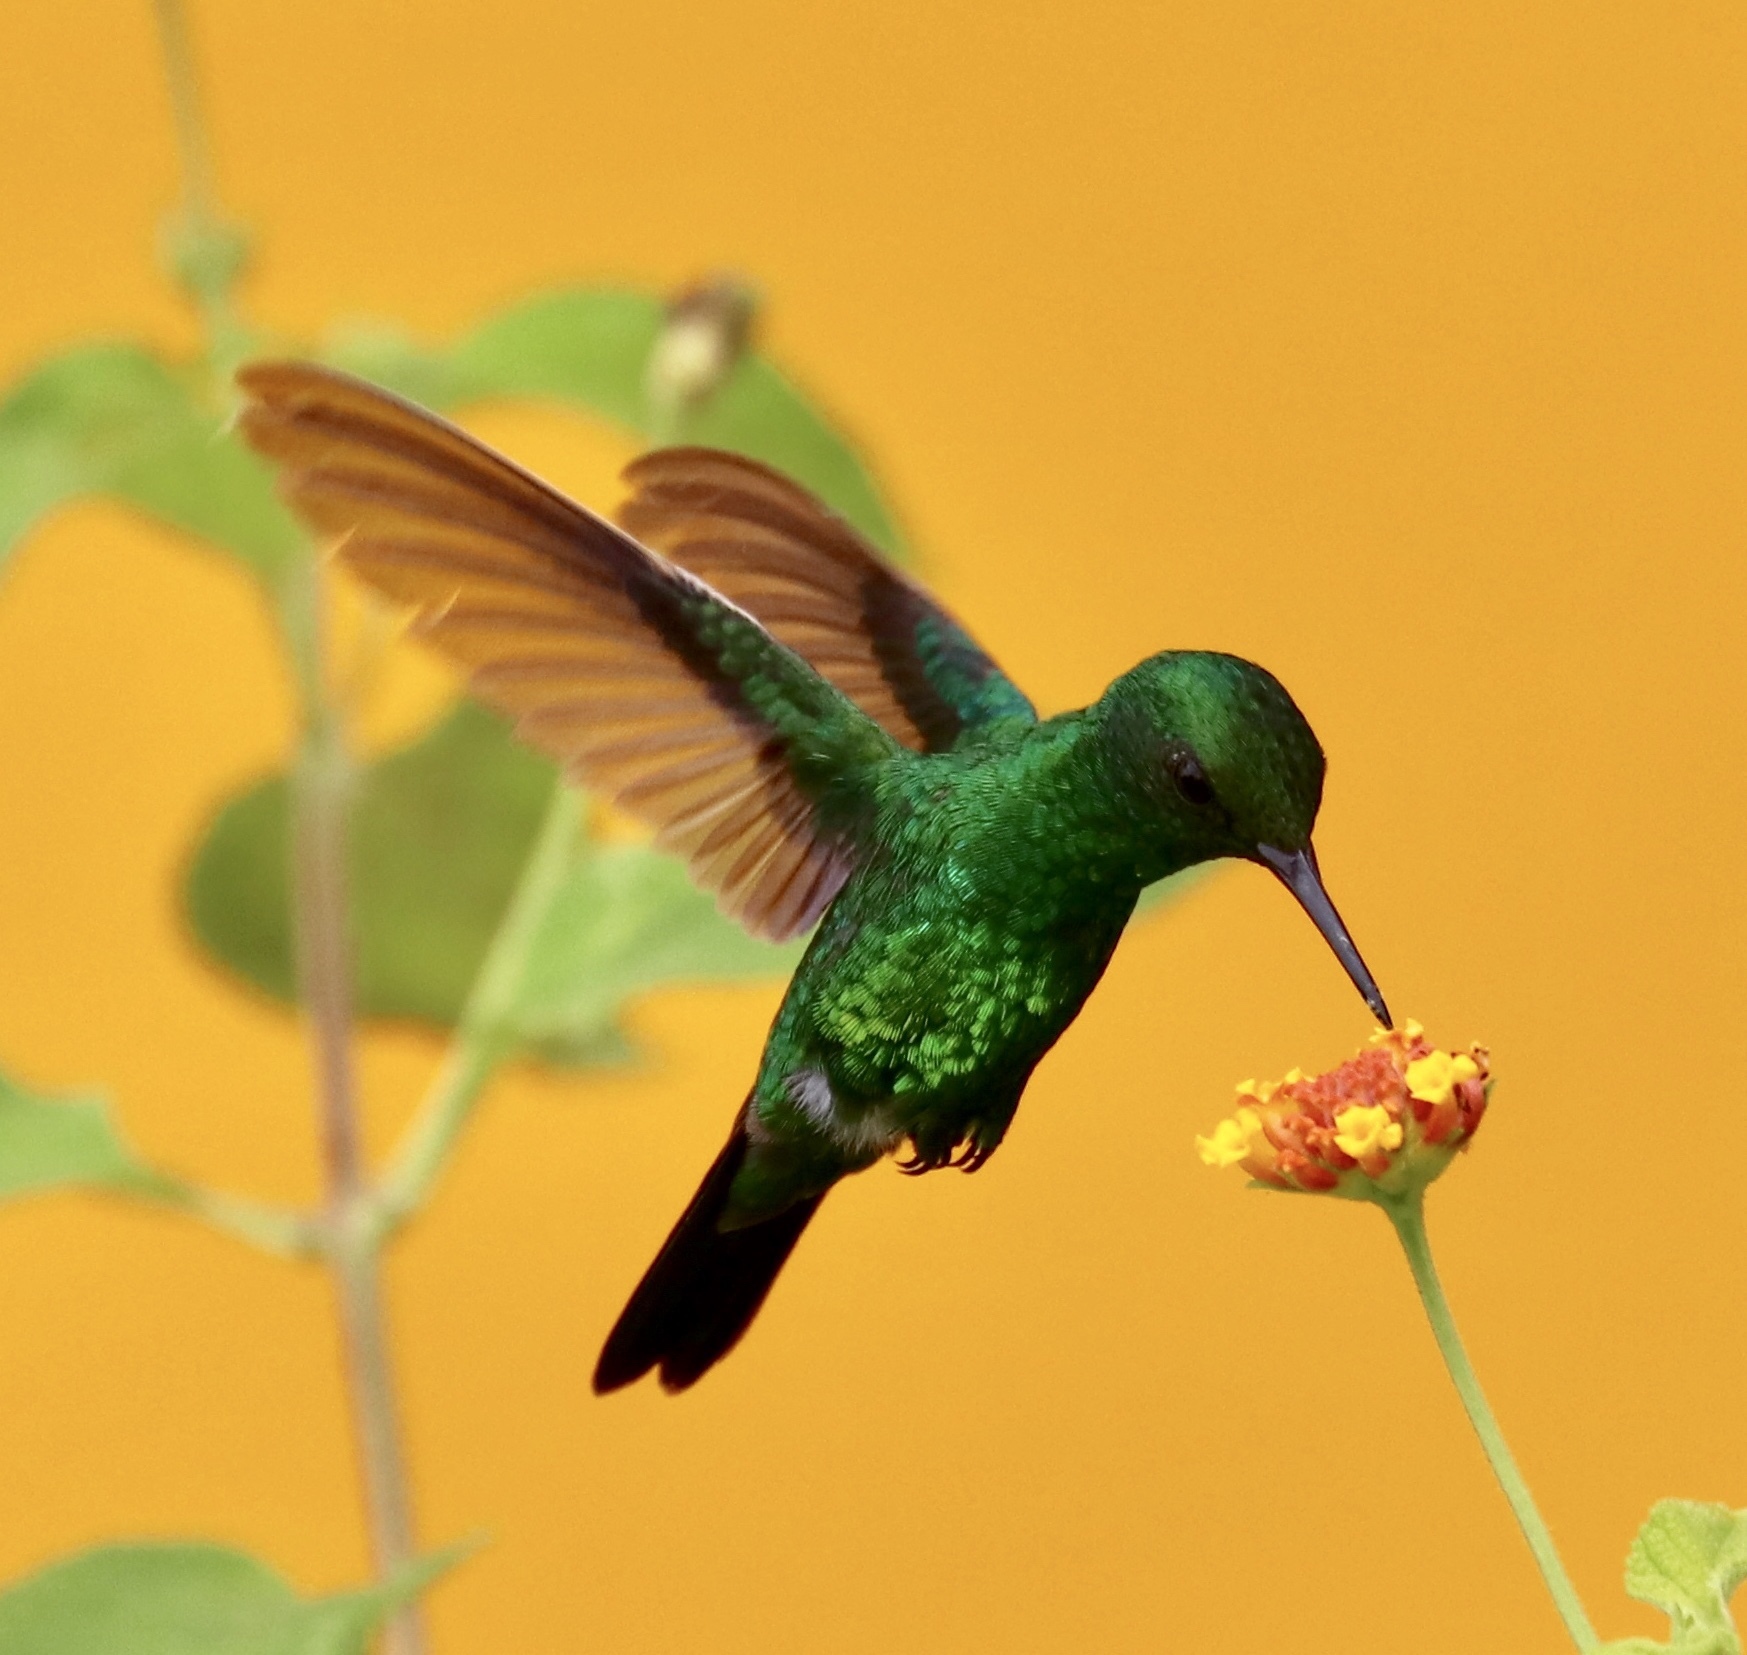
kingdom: Animalia
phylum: Chordata
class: Aves
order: Apodiformes
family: Trochilidae
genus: Chlorostilbon
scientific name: Chlorostilbon assimilis
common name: Garden emerald
